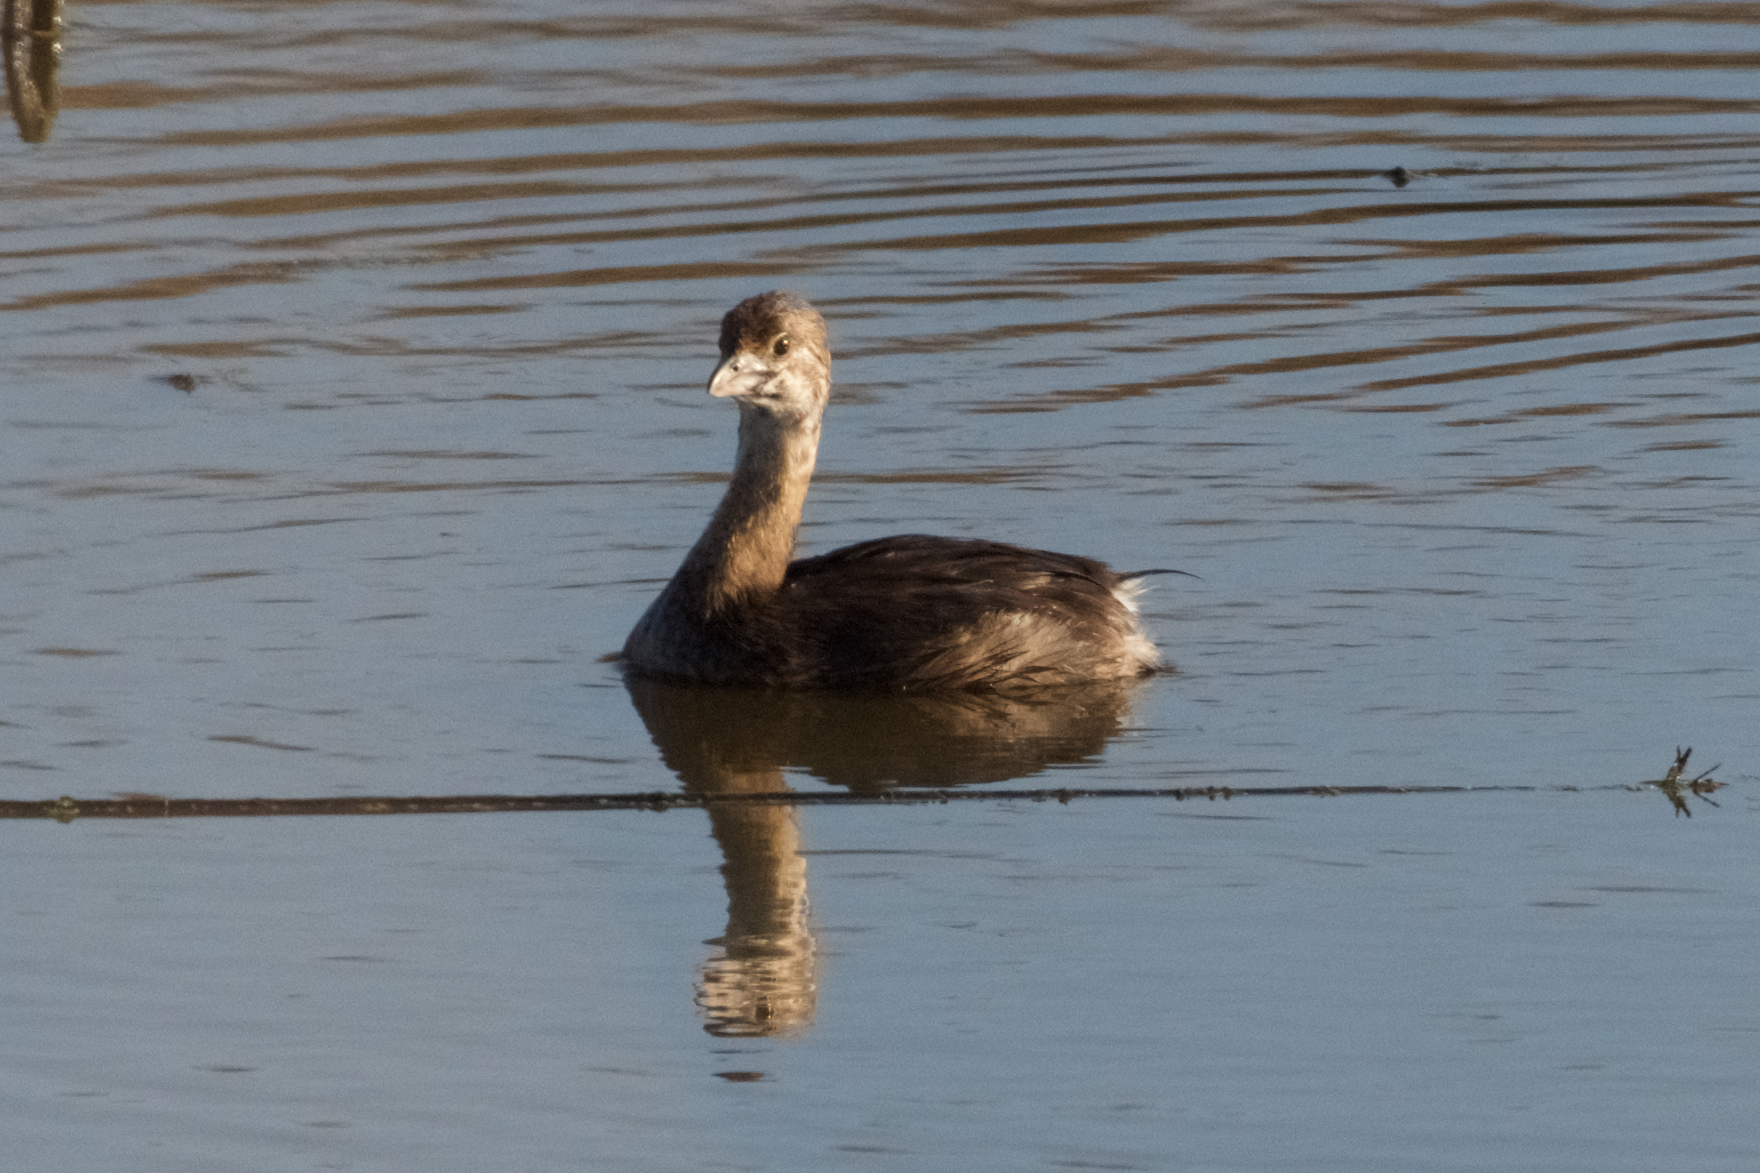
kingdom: Animalia
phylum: Chordata
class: Aves
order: Podicipediformes
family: Podicipedidae
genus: Podilymbus
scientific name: Podilymbus podiceps
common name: Pied-billed grebe
